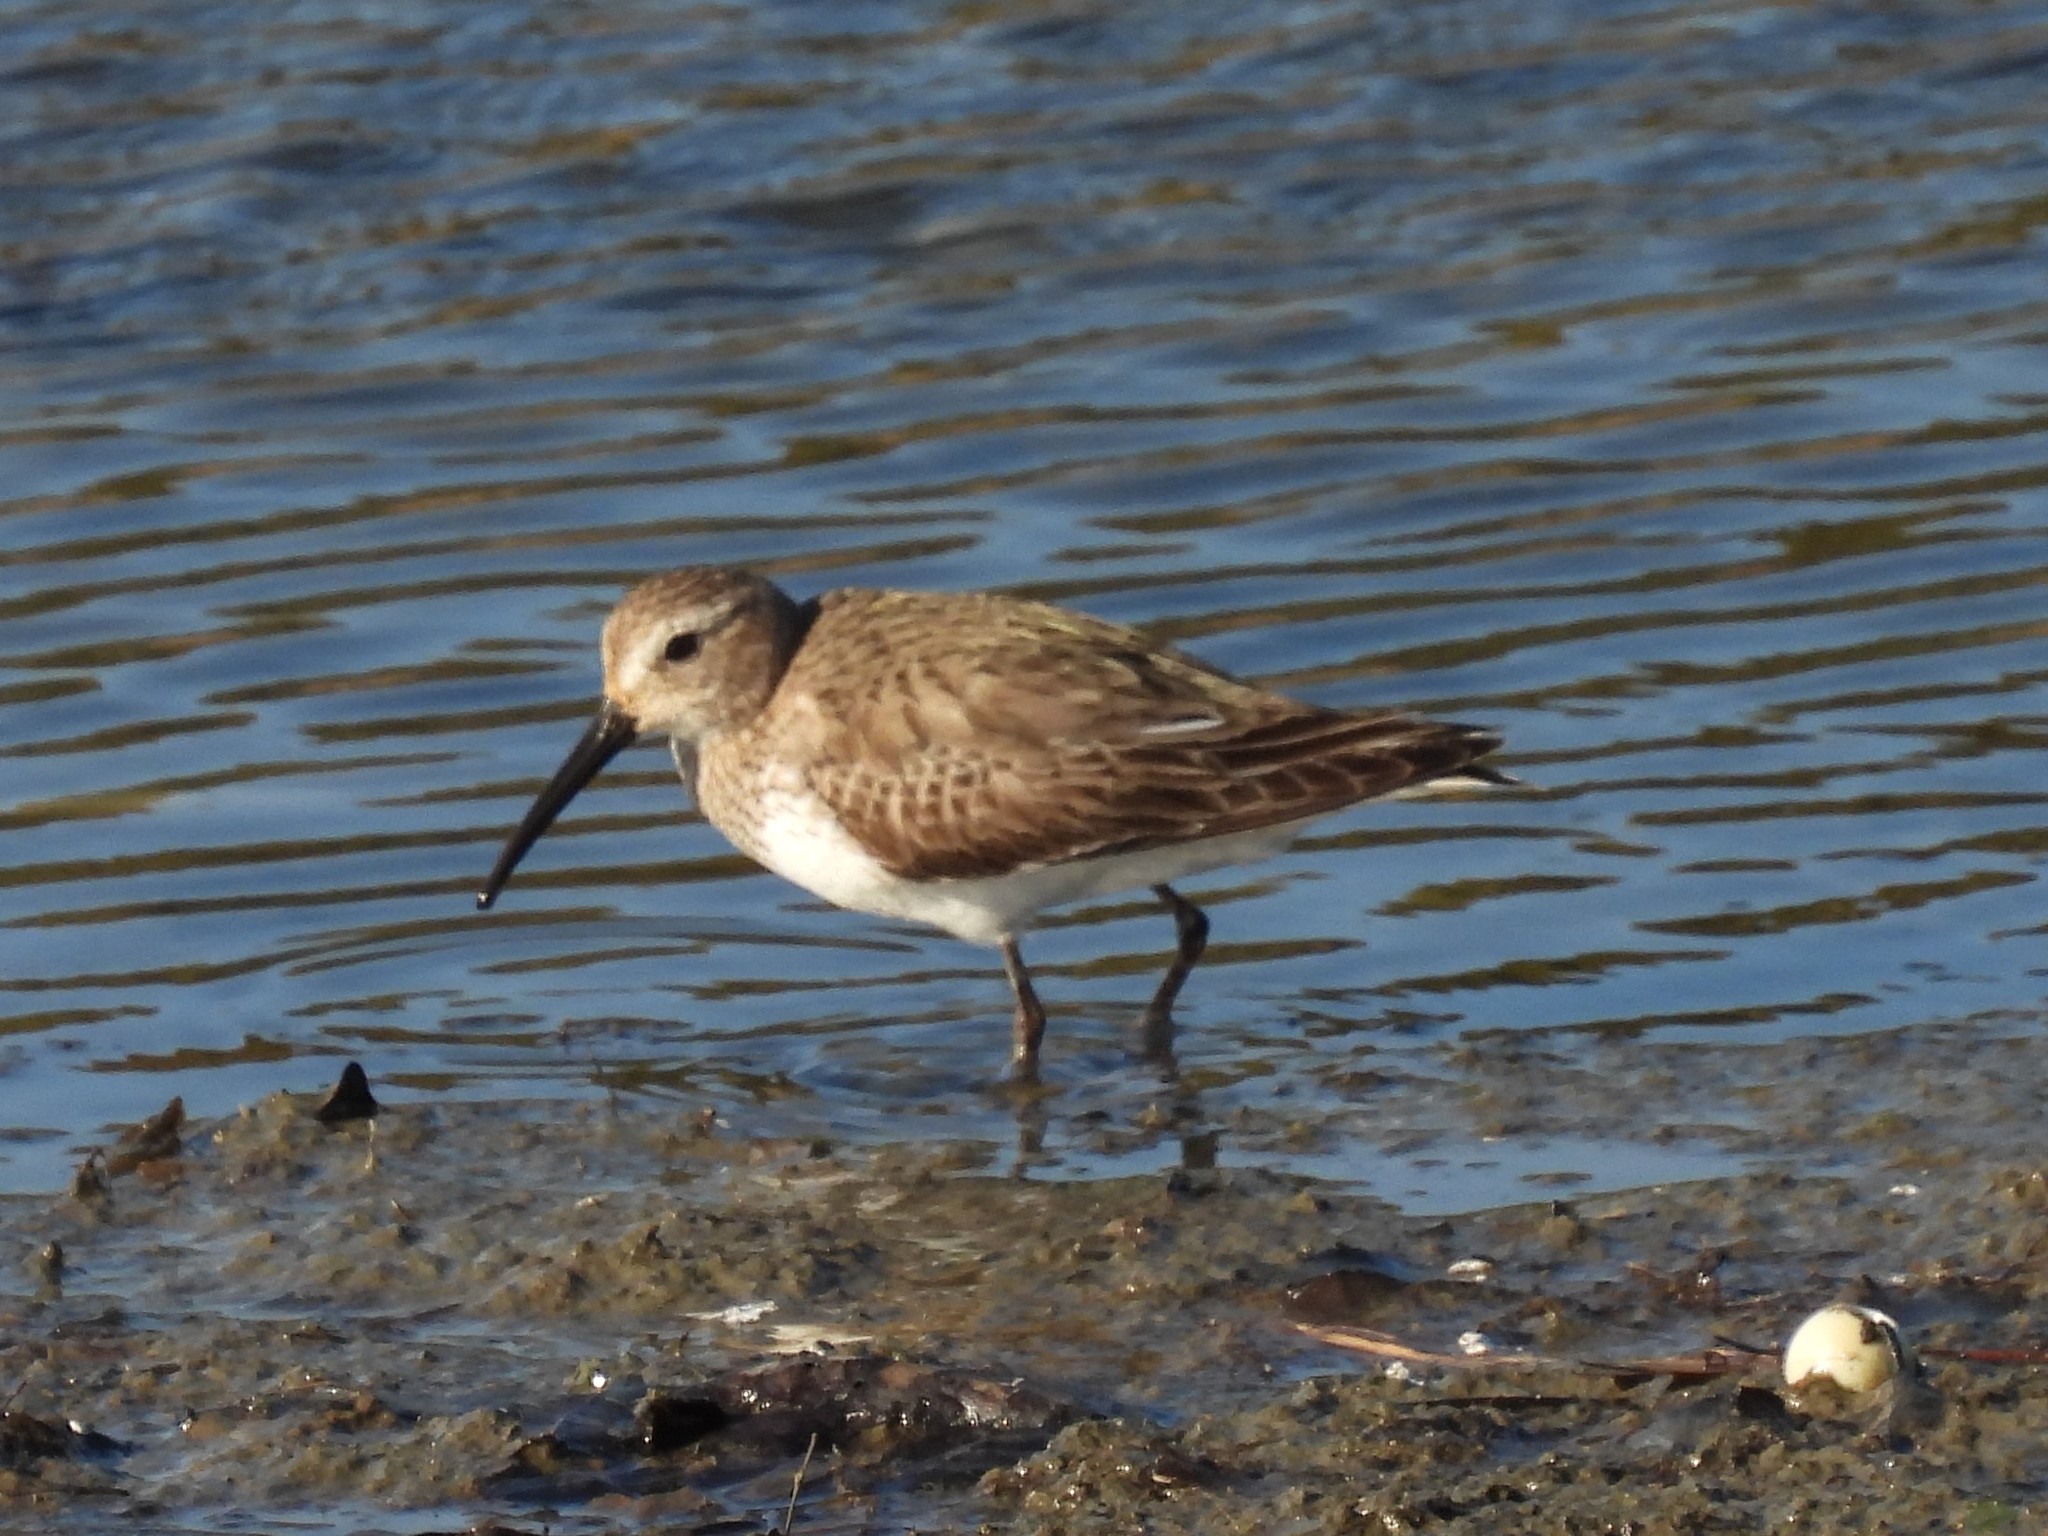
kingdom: Animalia
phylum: Chordata
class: Aves
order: Charadriiformes
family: Scolopacidae
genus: Calidris
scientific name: Calidris alpina
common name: Dunlin
